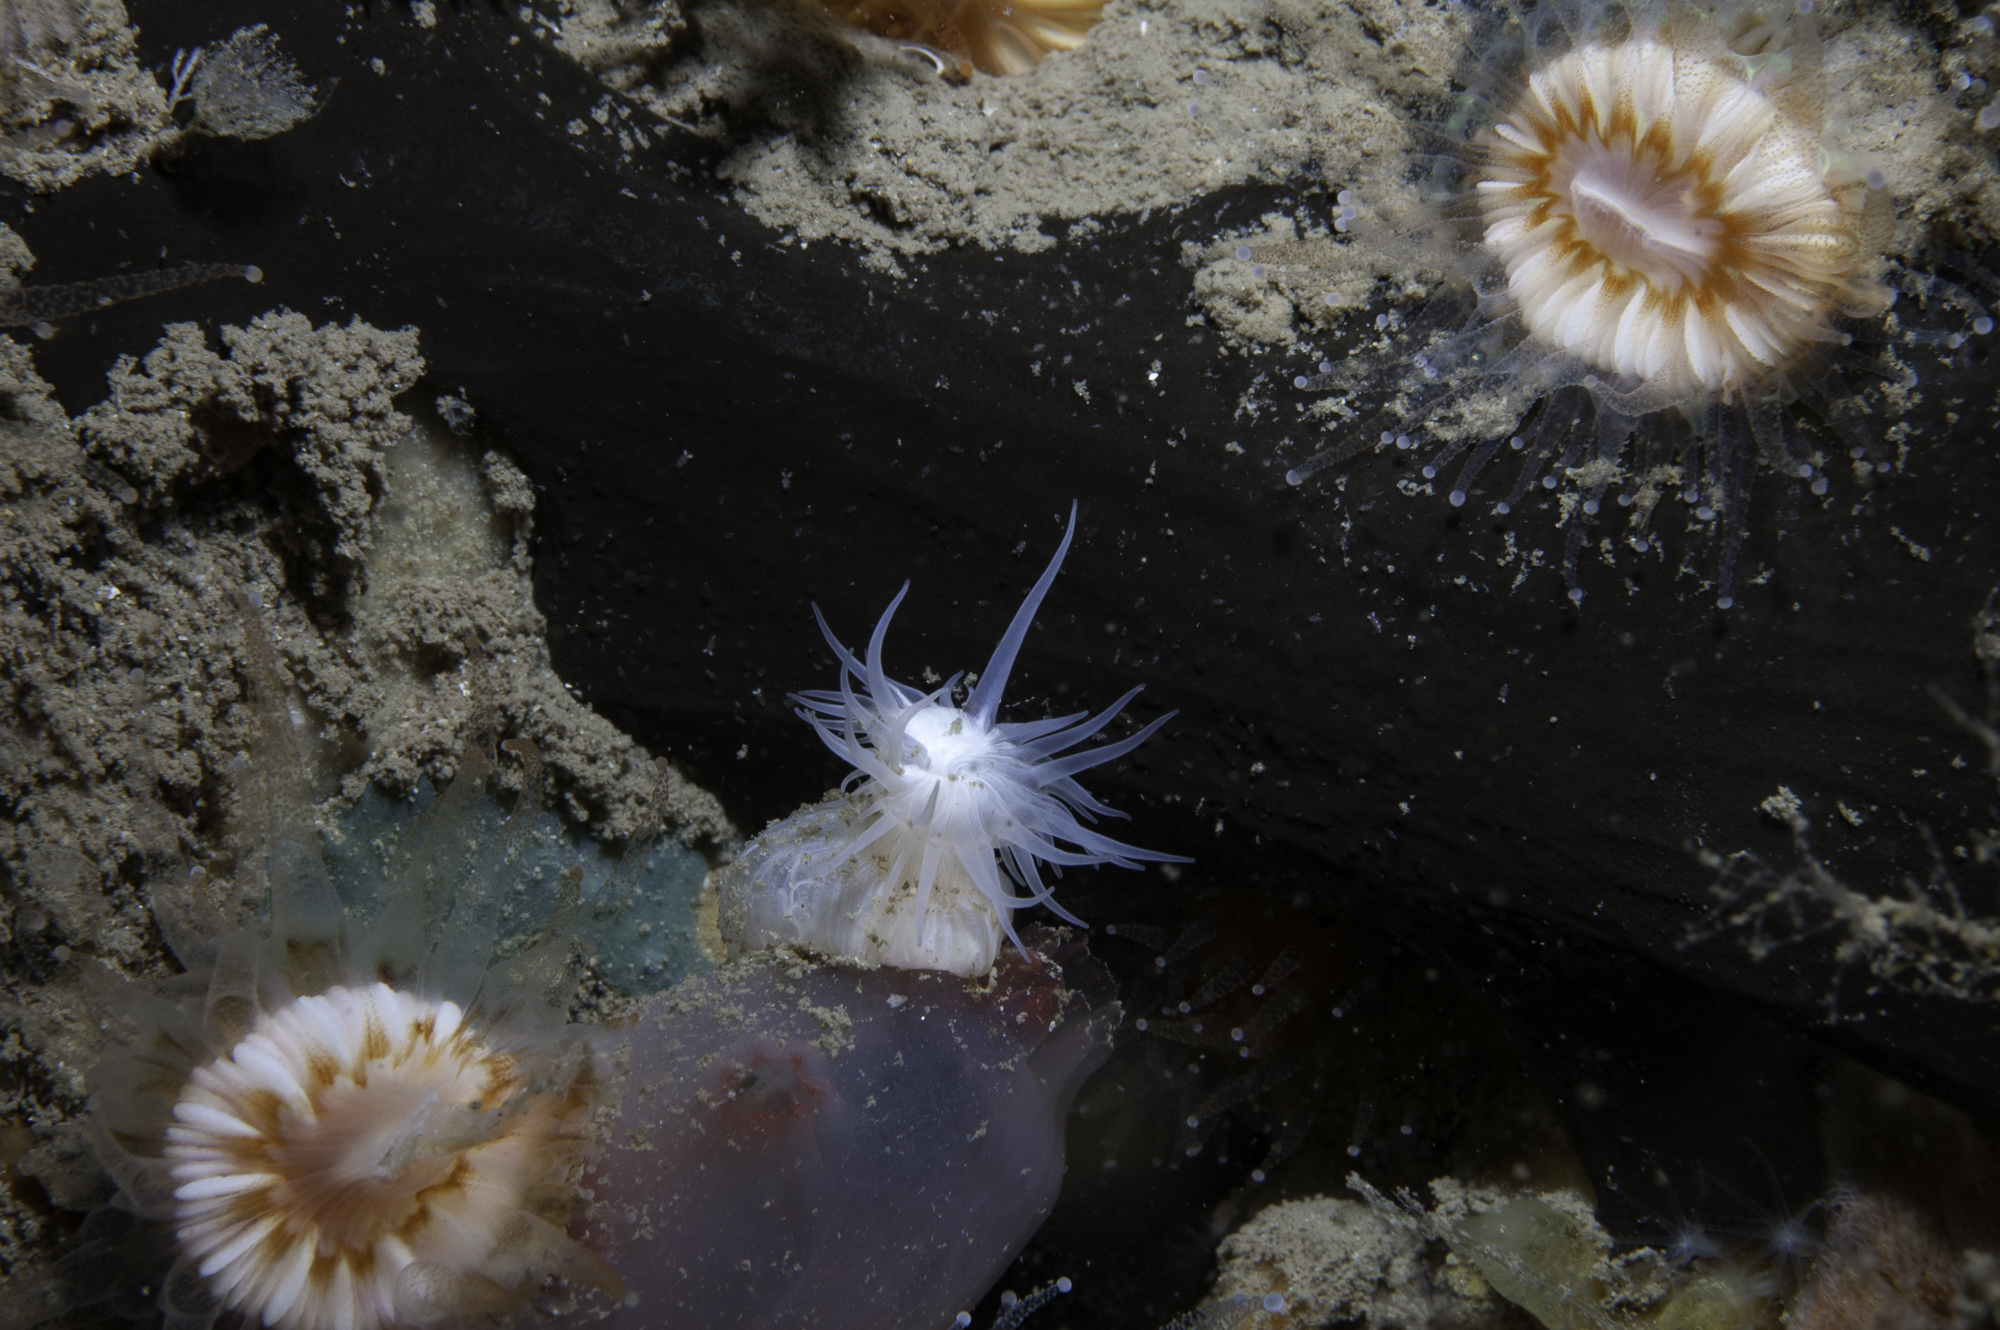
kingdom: Animalia
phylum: Porifera
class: Demospongiae
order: Tetractinellida
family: Ancorinidae
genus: Dercitus
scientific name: Dercitus bucklandi
